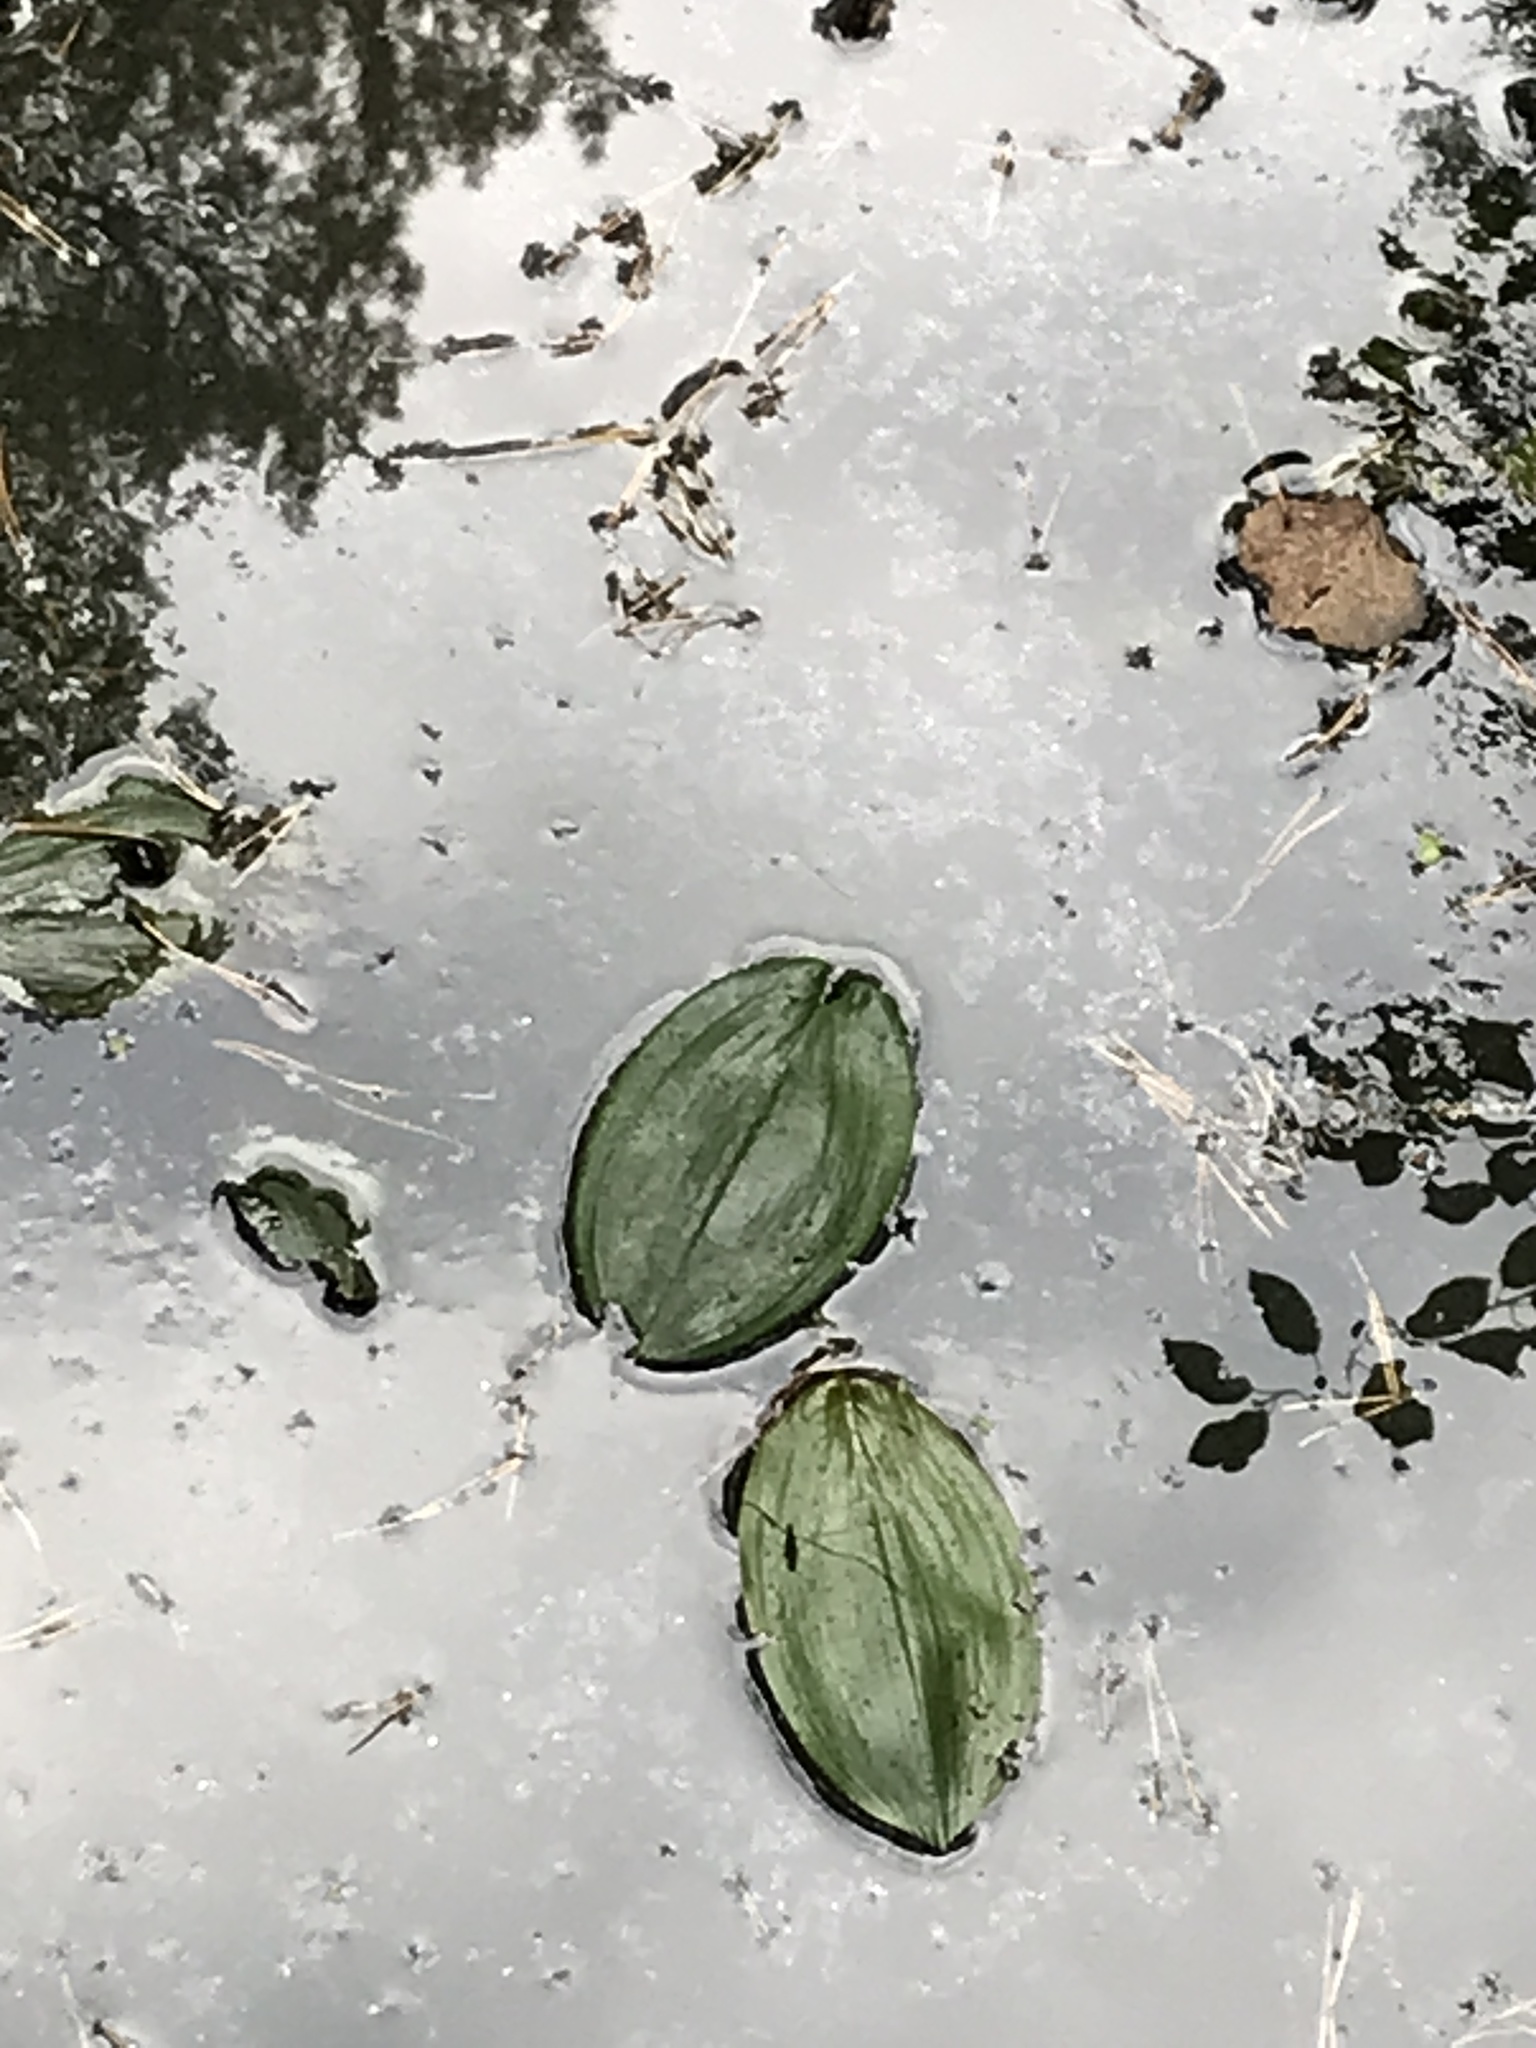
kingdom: Plantae
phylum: Tracheophyta
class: Liliopsida
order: Alismatales
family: Potamogetonaceae
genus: Potamogeton
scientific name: Potamogeton natans
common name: Broad-leaved pondweed
